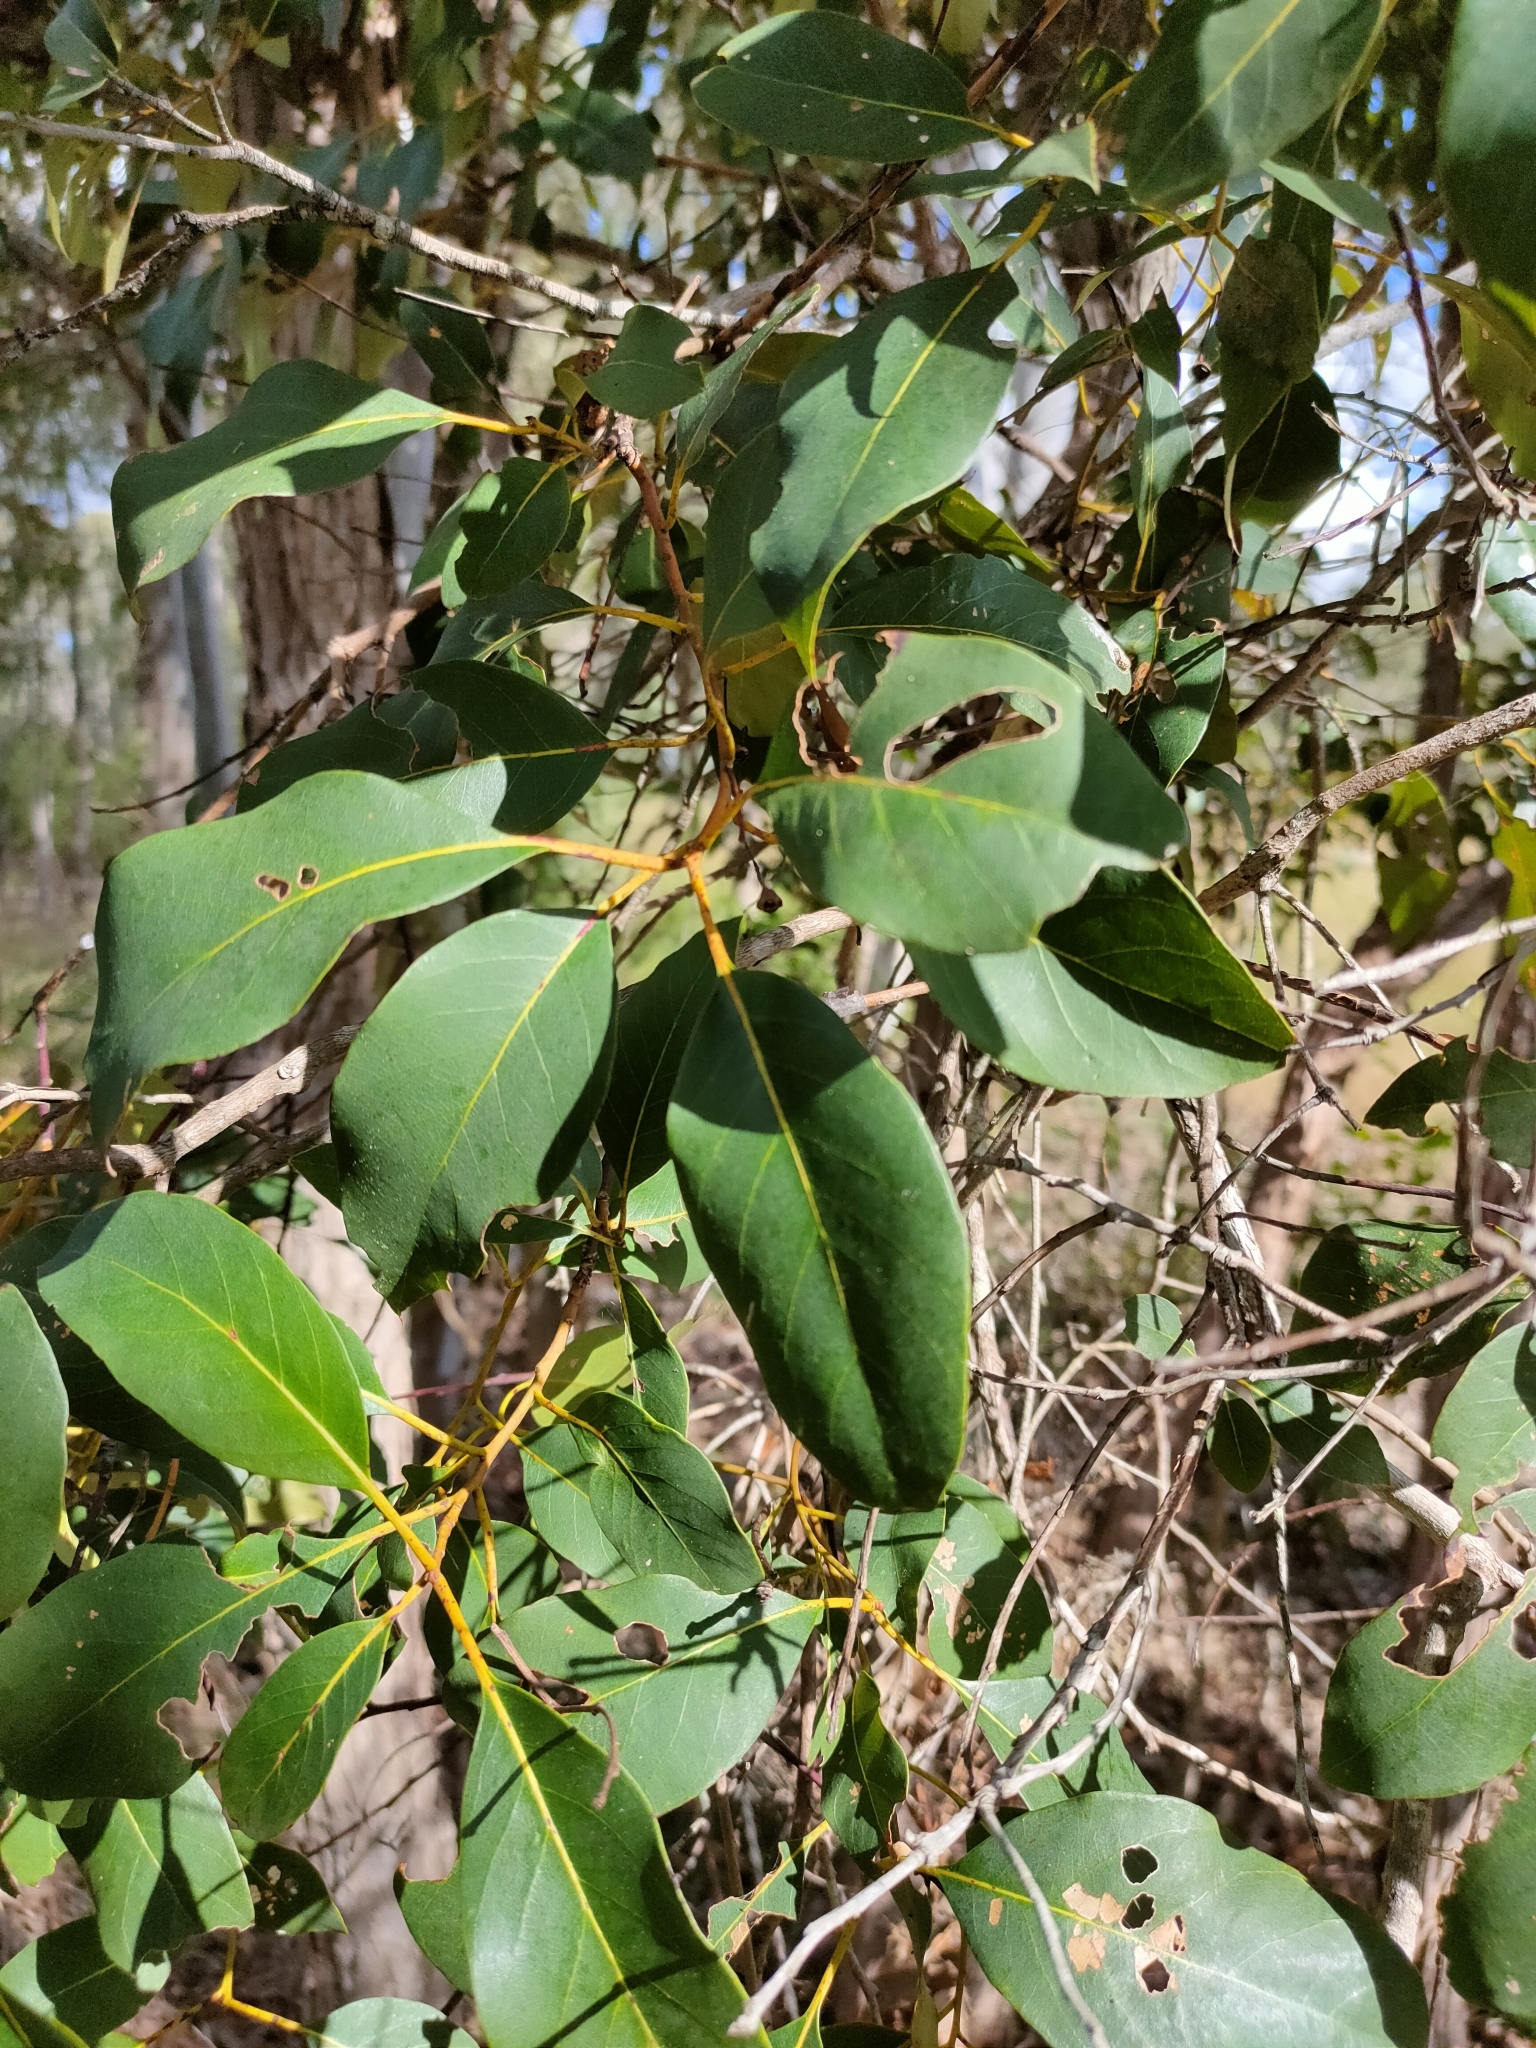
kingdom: Plantae
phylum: Tracheophyta
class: Magnoliopsida
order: Myrtales
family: Myrtaceae
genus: Lophostemon
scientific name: Lophostemon suaveolens
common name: Paperbark-mahogany
